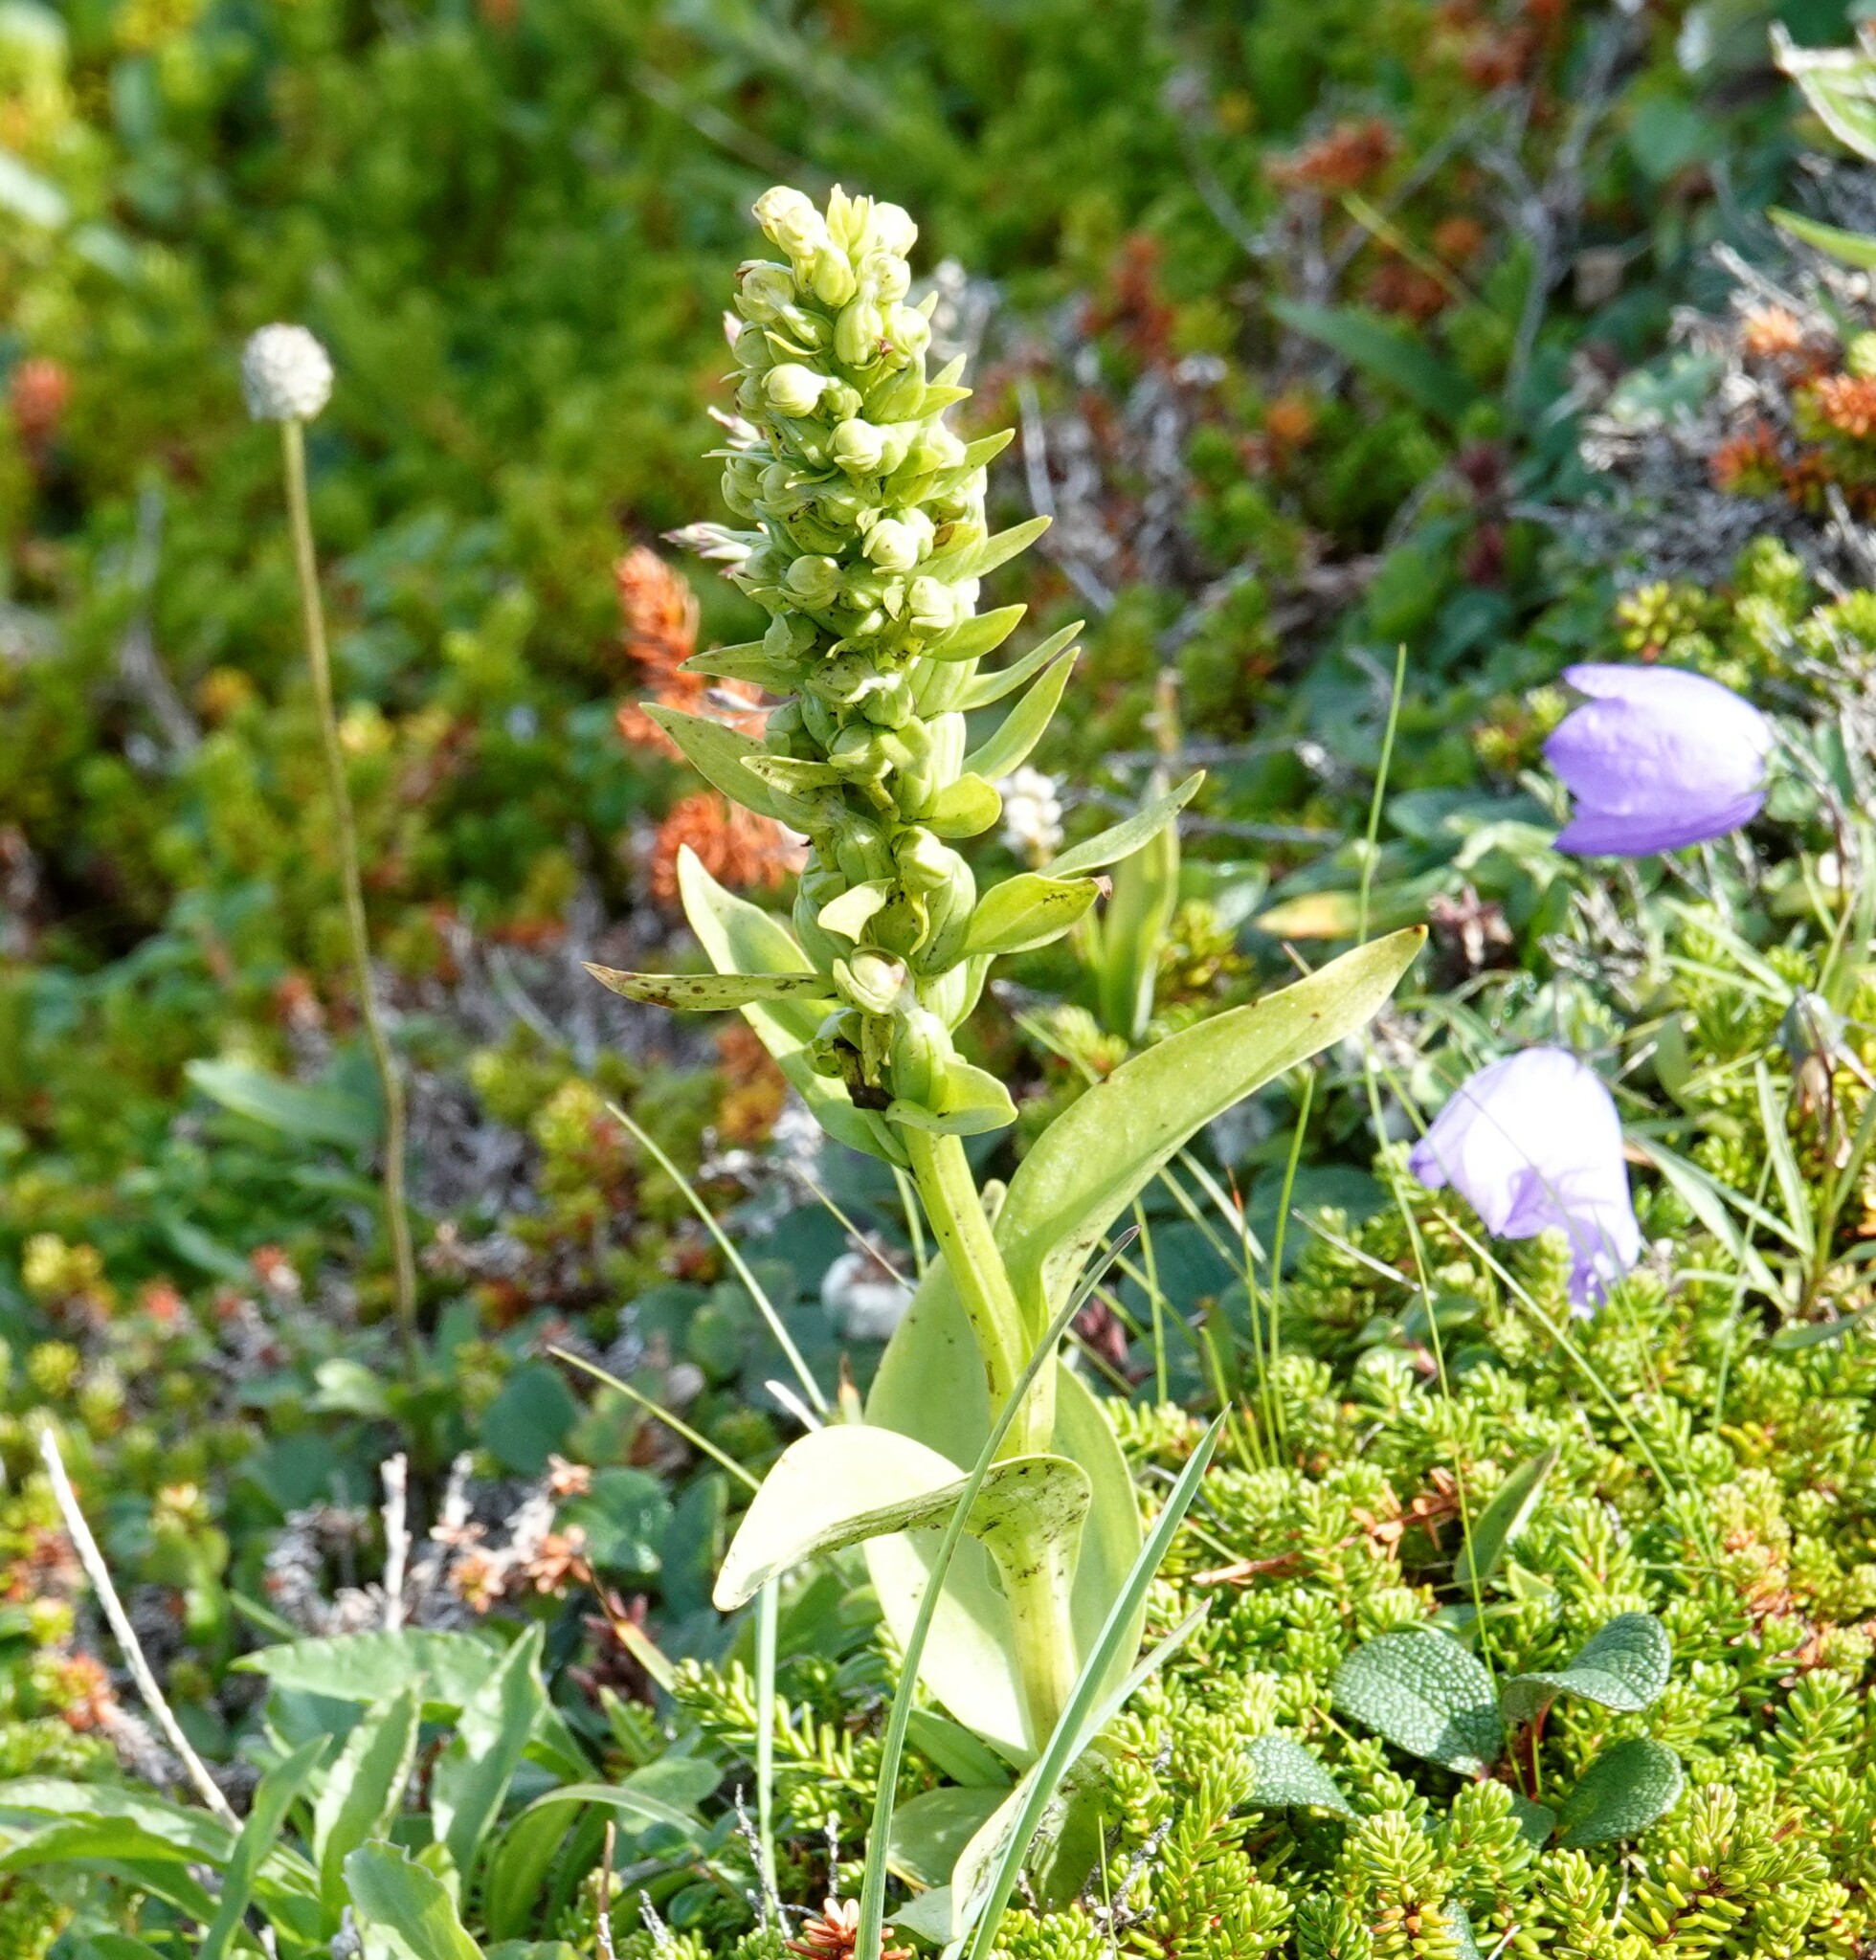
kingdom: Plantae
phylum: Tracheophyta
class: Liliopsida
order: Asparagales
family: Orchidaceae
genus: Dactylorhiza
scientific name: Dactylorhiza viridis
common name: Longbract frog orchid
